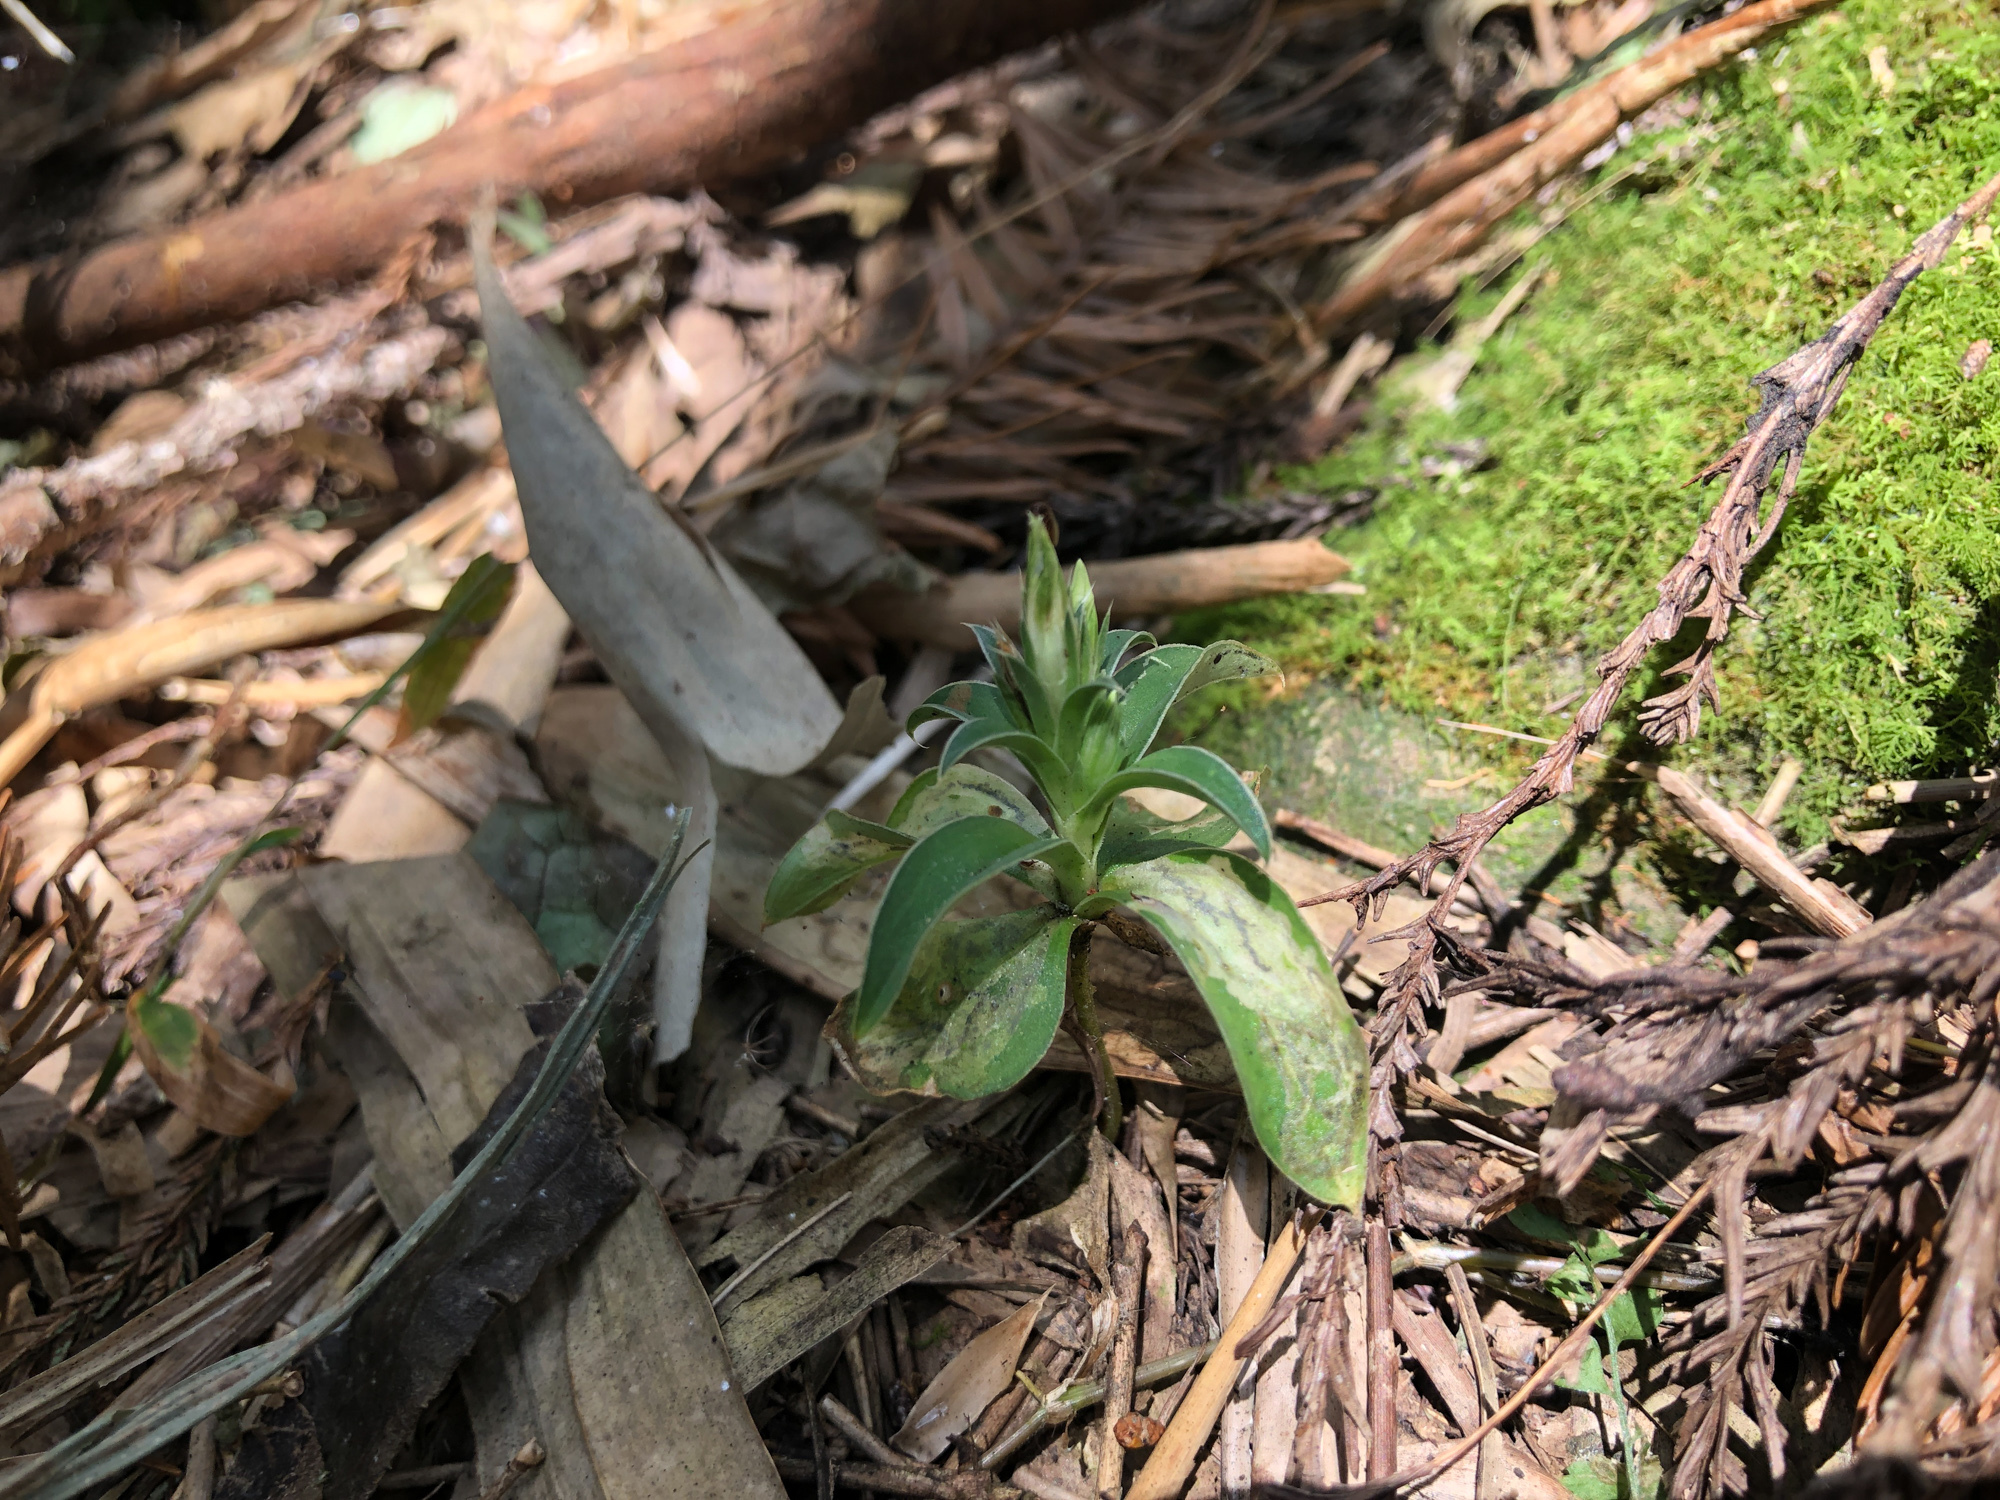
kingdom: Plantae
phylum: Tracheophyta
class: Magnoliopsida
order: Gentianales
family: Gentianaceae
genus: Gentiana
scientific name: Gentiana bambuseti
